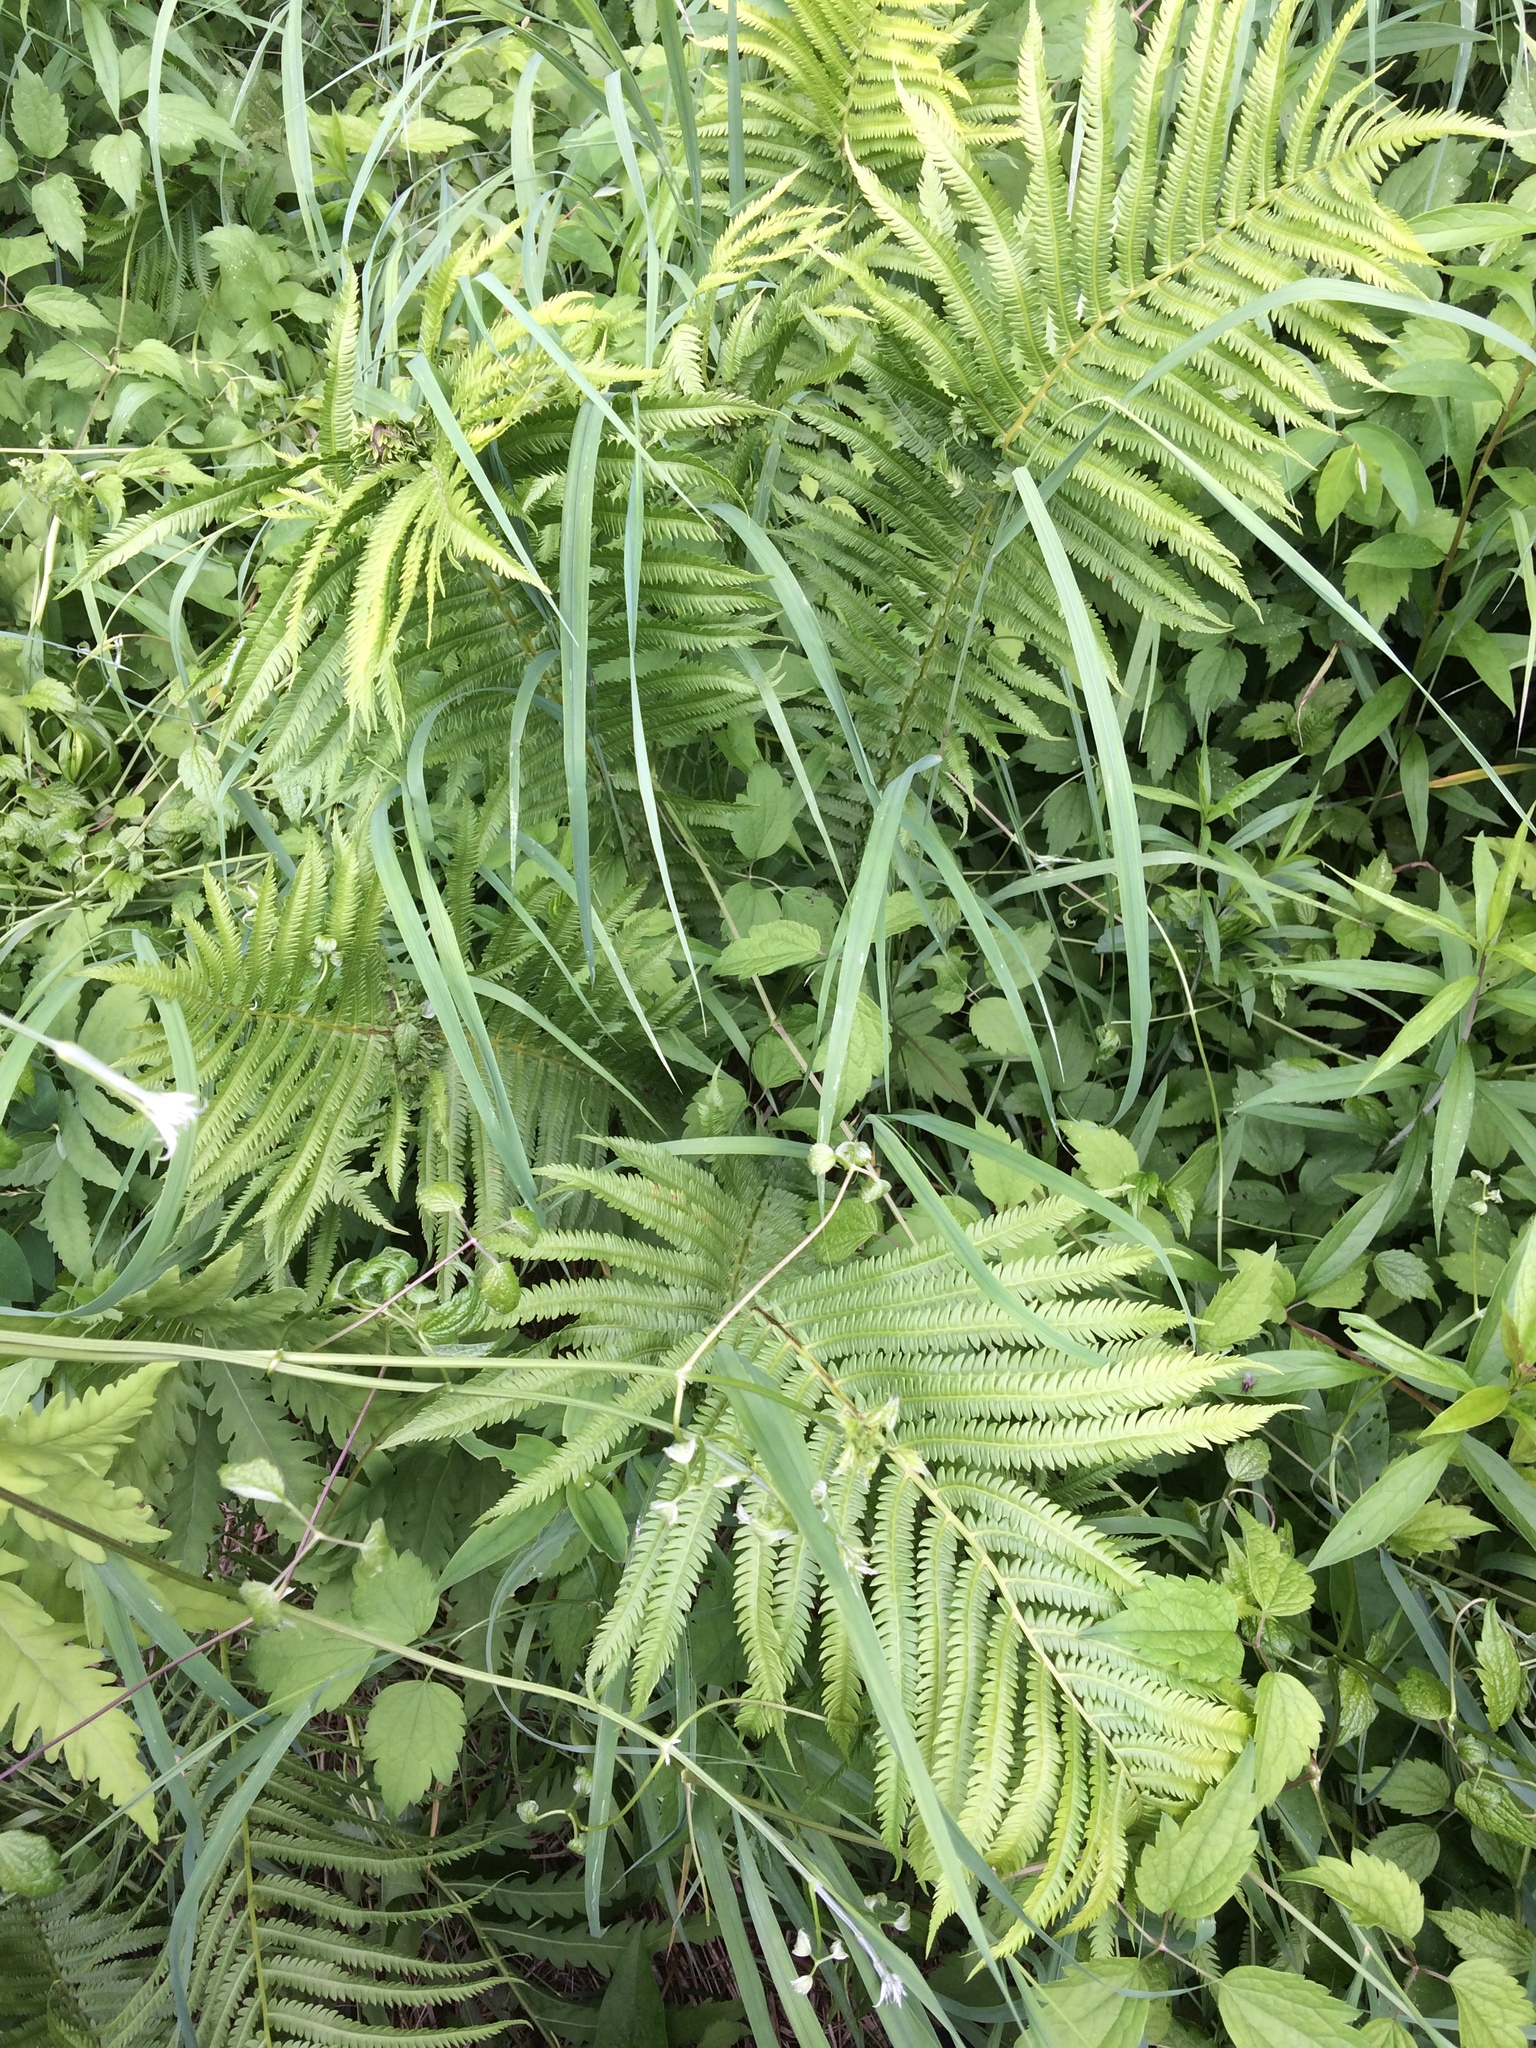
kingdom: Plantae
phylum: Tracheophyta
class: Polypodiopsida
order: Polypodiales
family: Onocleaceae
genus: Matteuccia
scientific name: Matteuccia struthiopteris
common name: Ostrich fern
